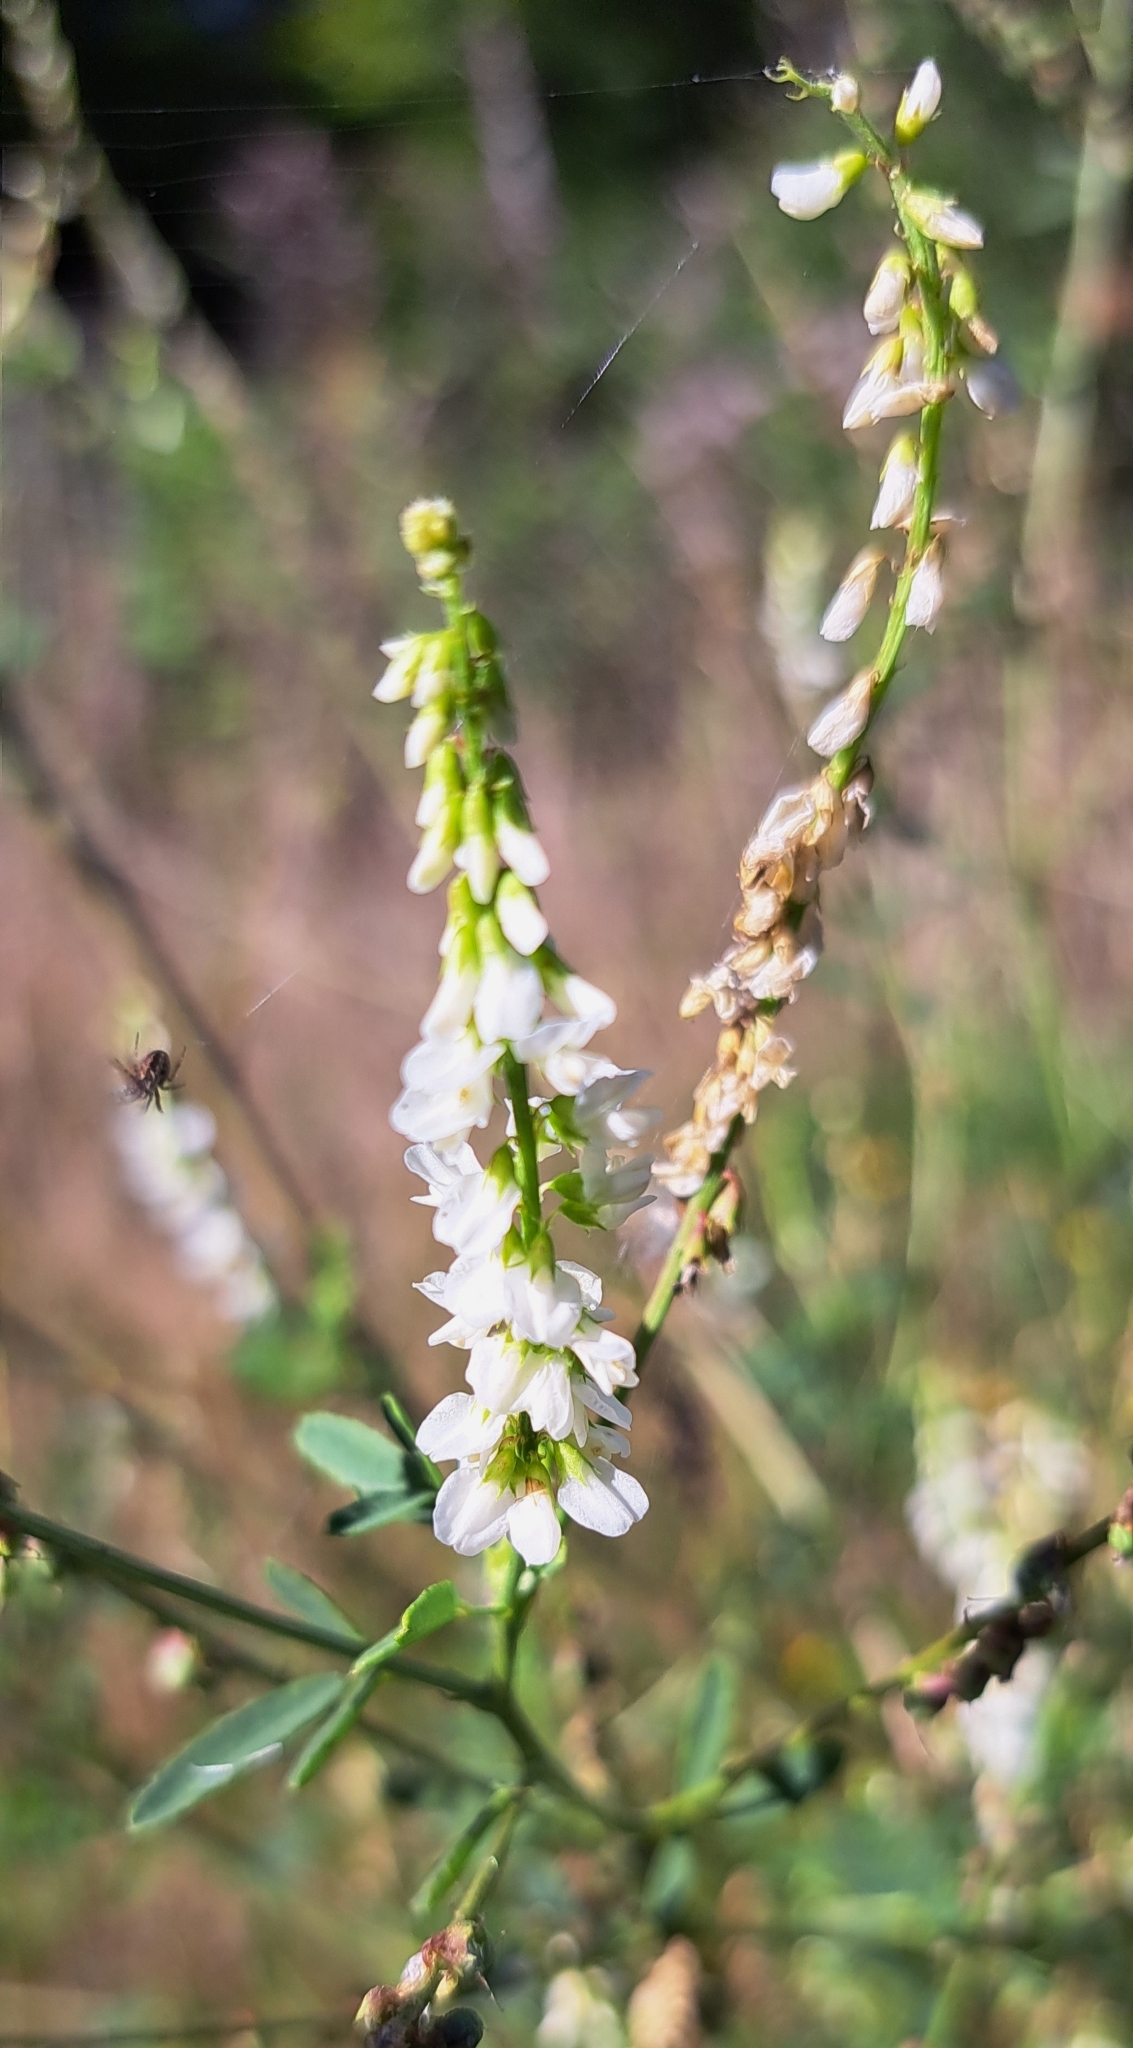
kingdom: Plantae
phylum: Tracheophyta
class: Magnoliopsida
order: Fabales
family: Fabaceae
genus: Melilotus
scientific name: Melilotus albus
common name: White melilot
